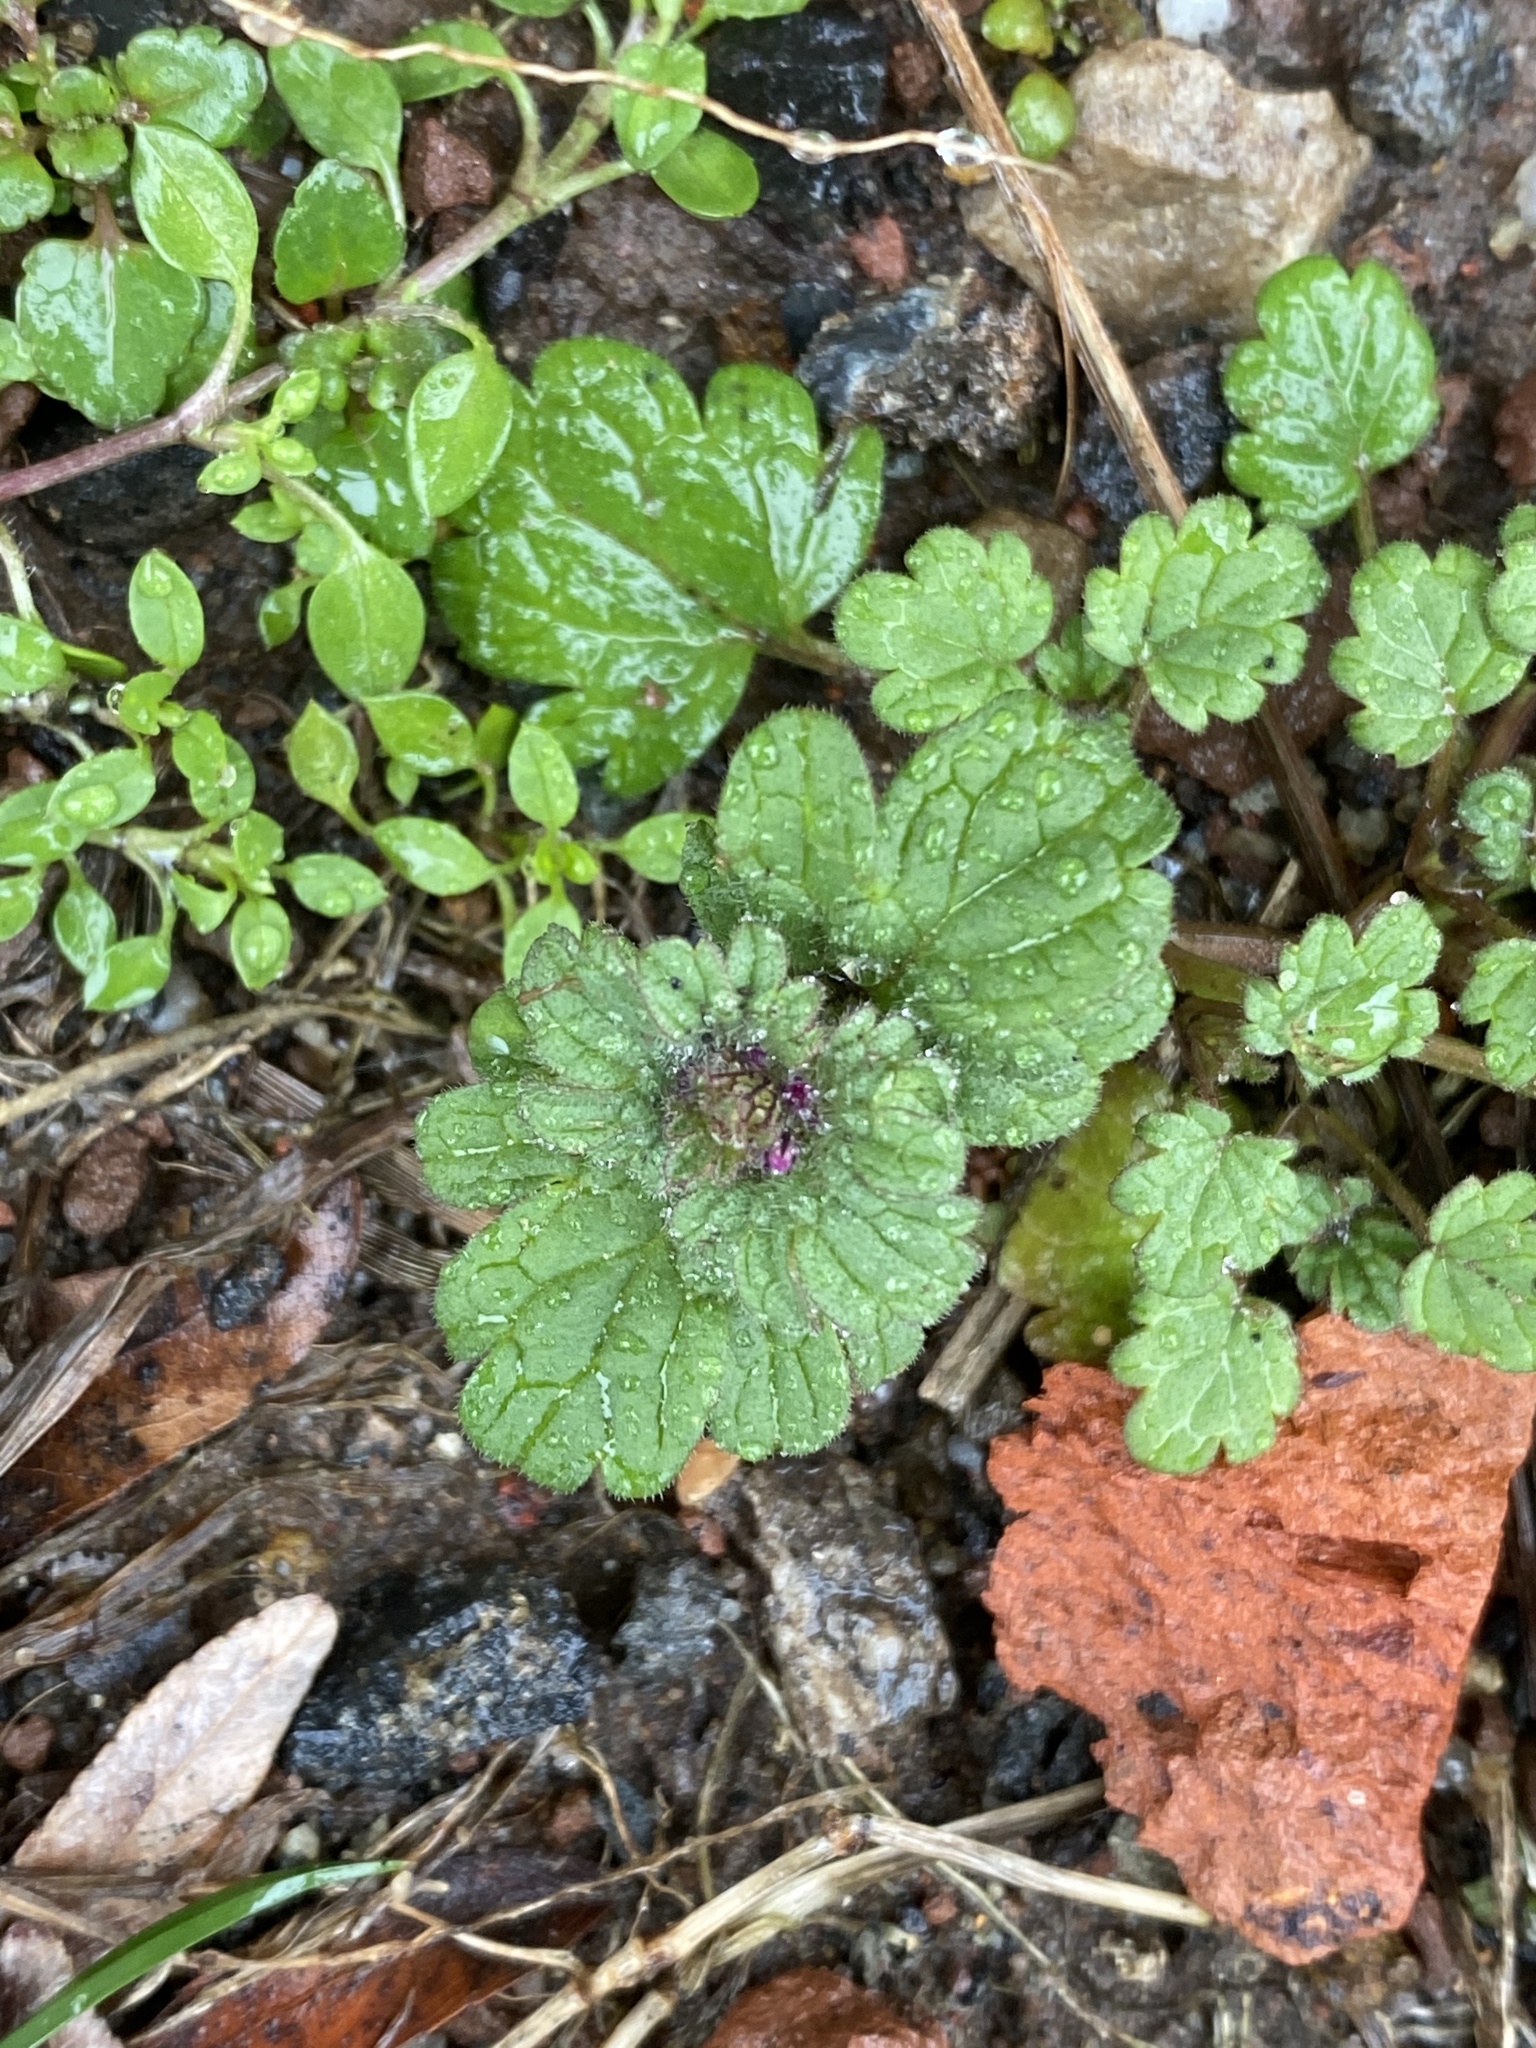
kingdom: Plantae
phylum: Tracheophyta
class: Magnoliopsida
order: Lamiales
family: Lamiaceae
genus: Lamium
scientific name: Lamium amplexicaule
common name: Henbit dead-nettle
